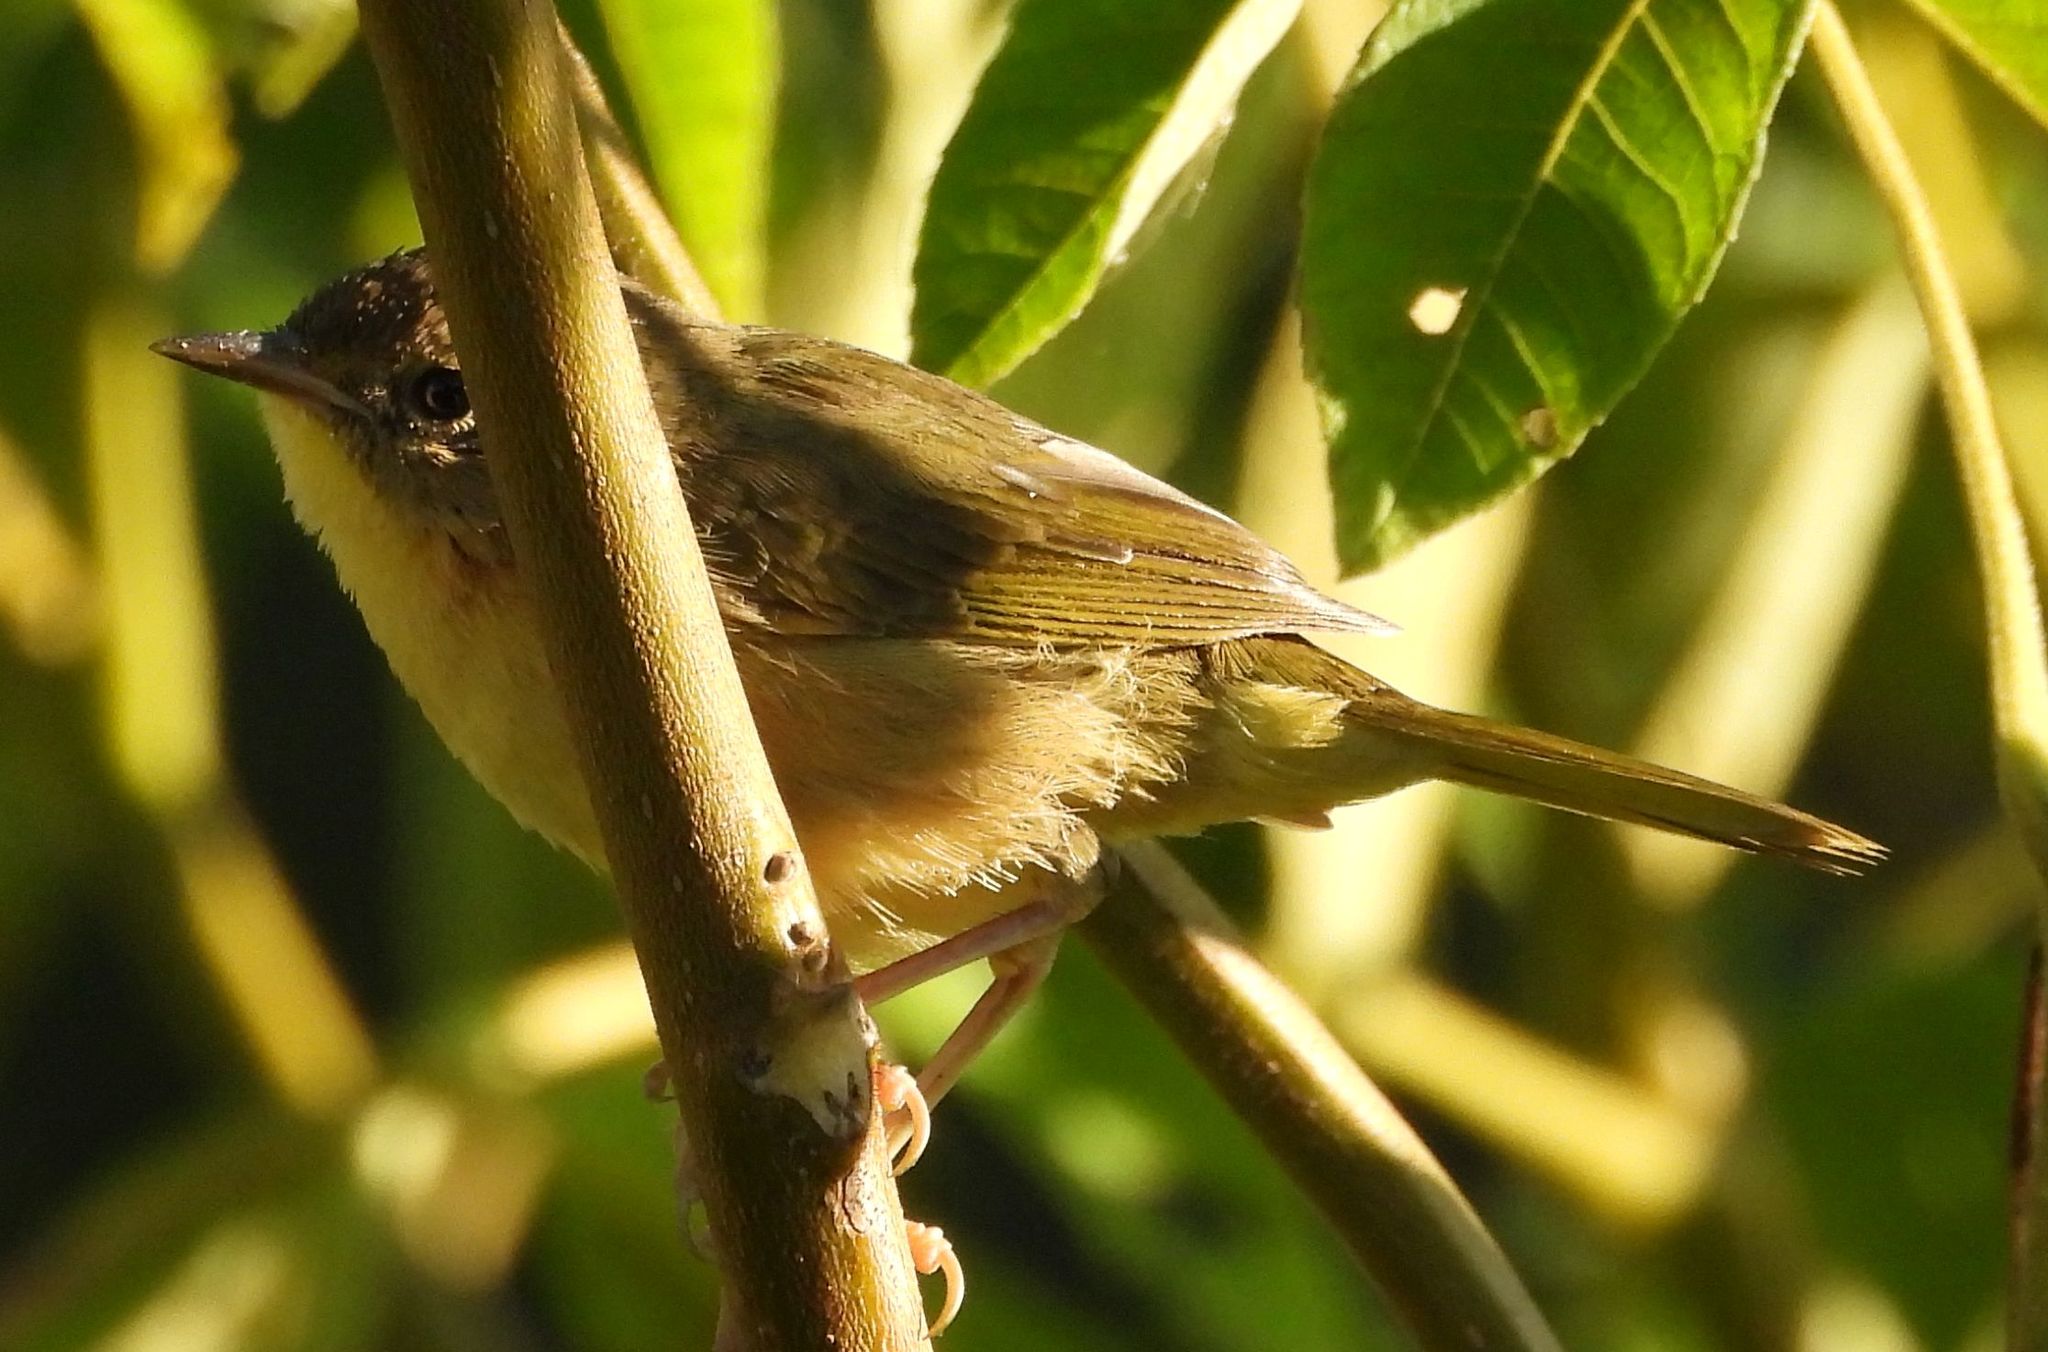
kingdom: Animalia
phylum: Chordata
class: Aves
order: Passeriformes
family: Parulidae
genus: Geothlypis
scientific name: Geothlypis trichas
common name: Common yellowthroat
